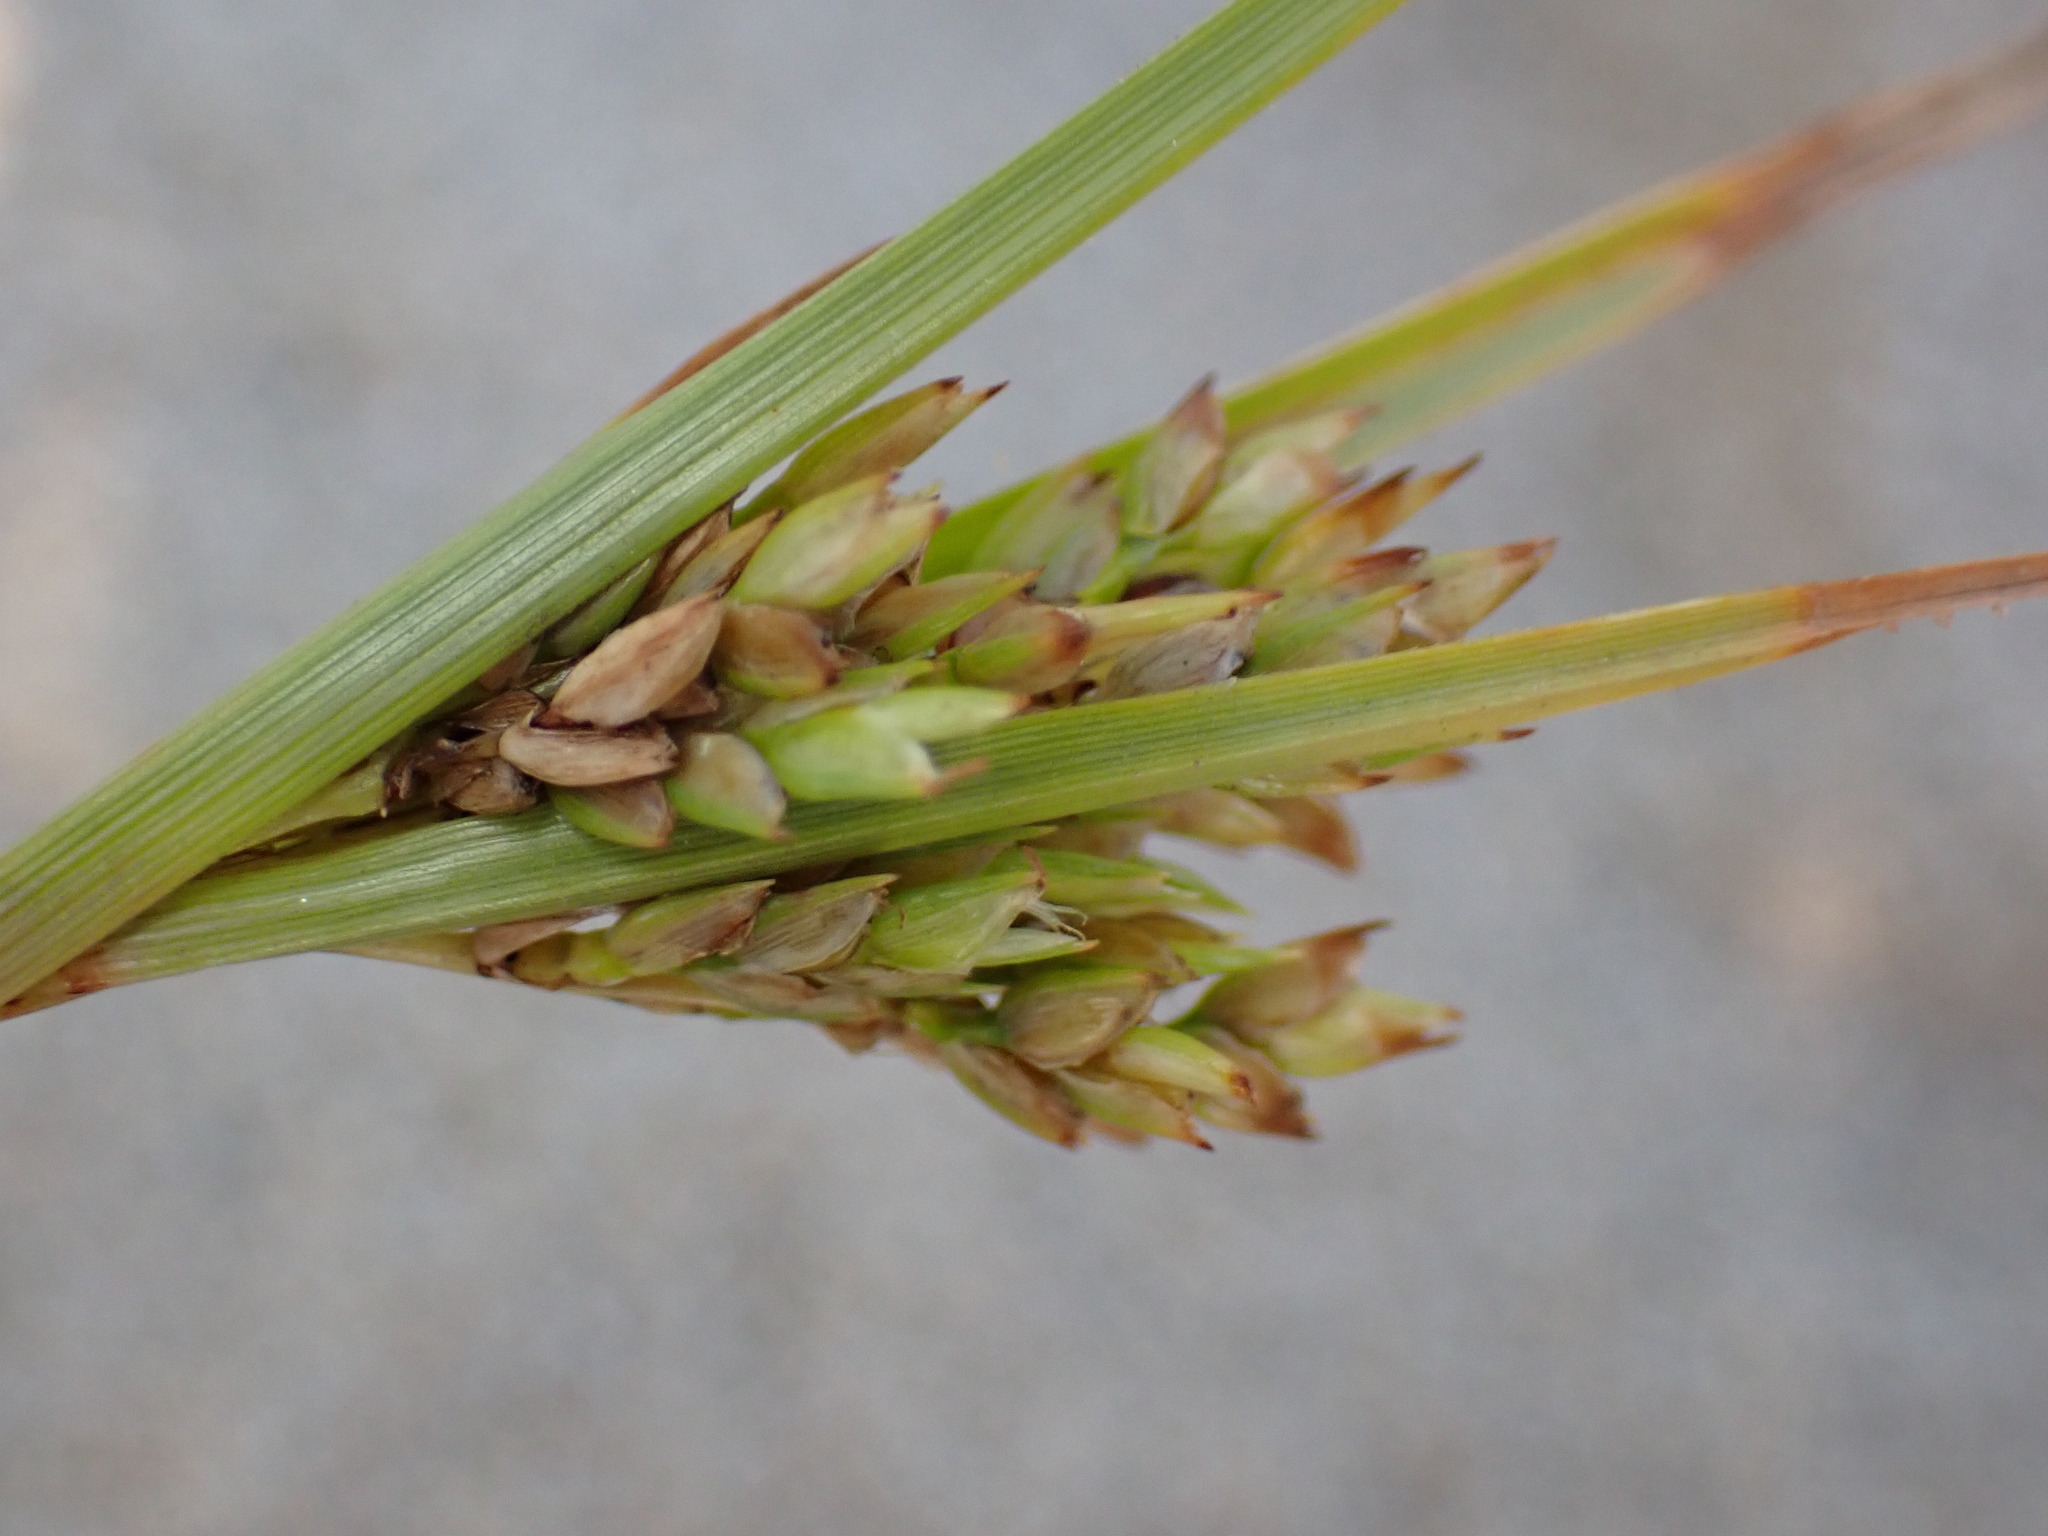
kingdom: Plantae
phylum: Tracheophyta
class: Liliopsida
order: Poales
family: Cyperaceae
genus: Cyperus
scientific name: Cyperus schweinitzii
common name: Schweinitz's cyperus
